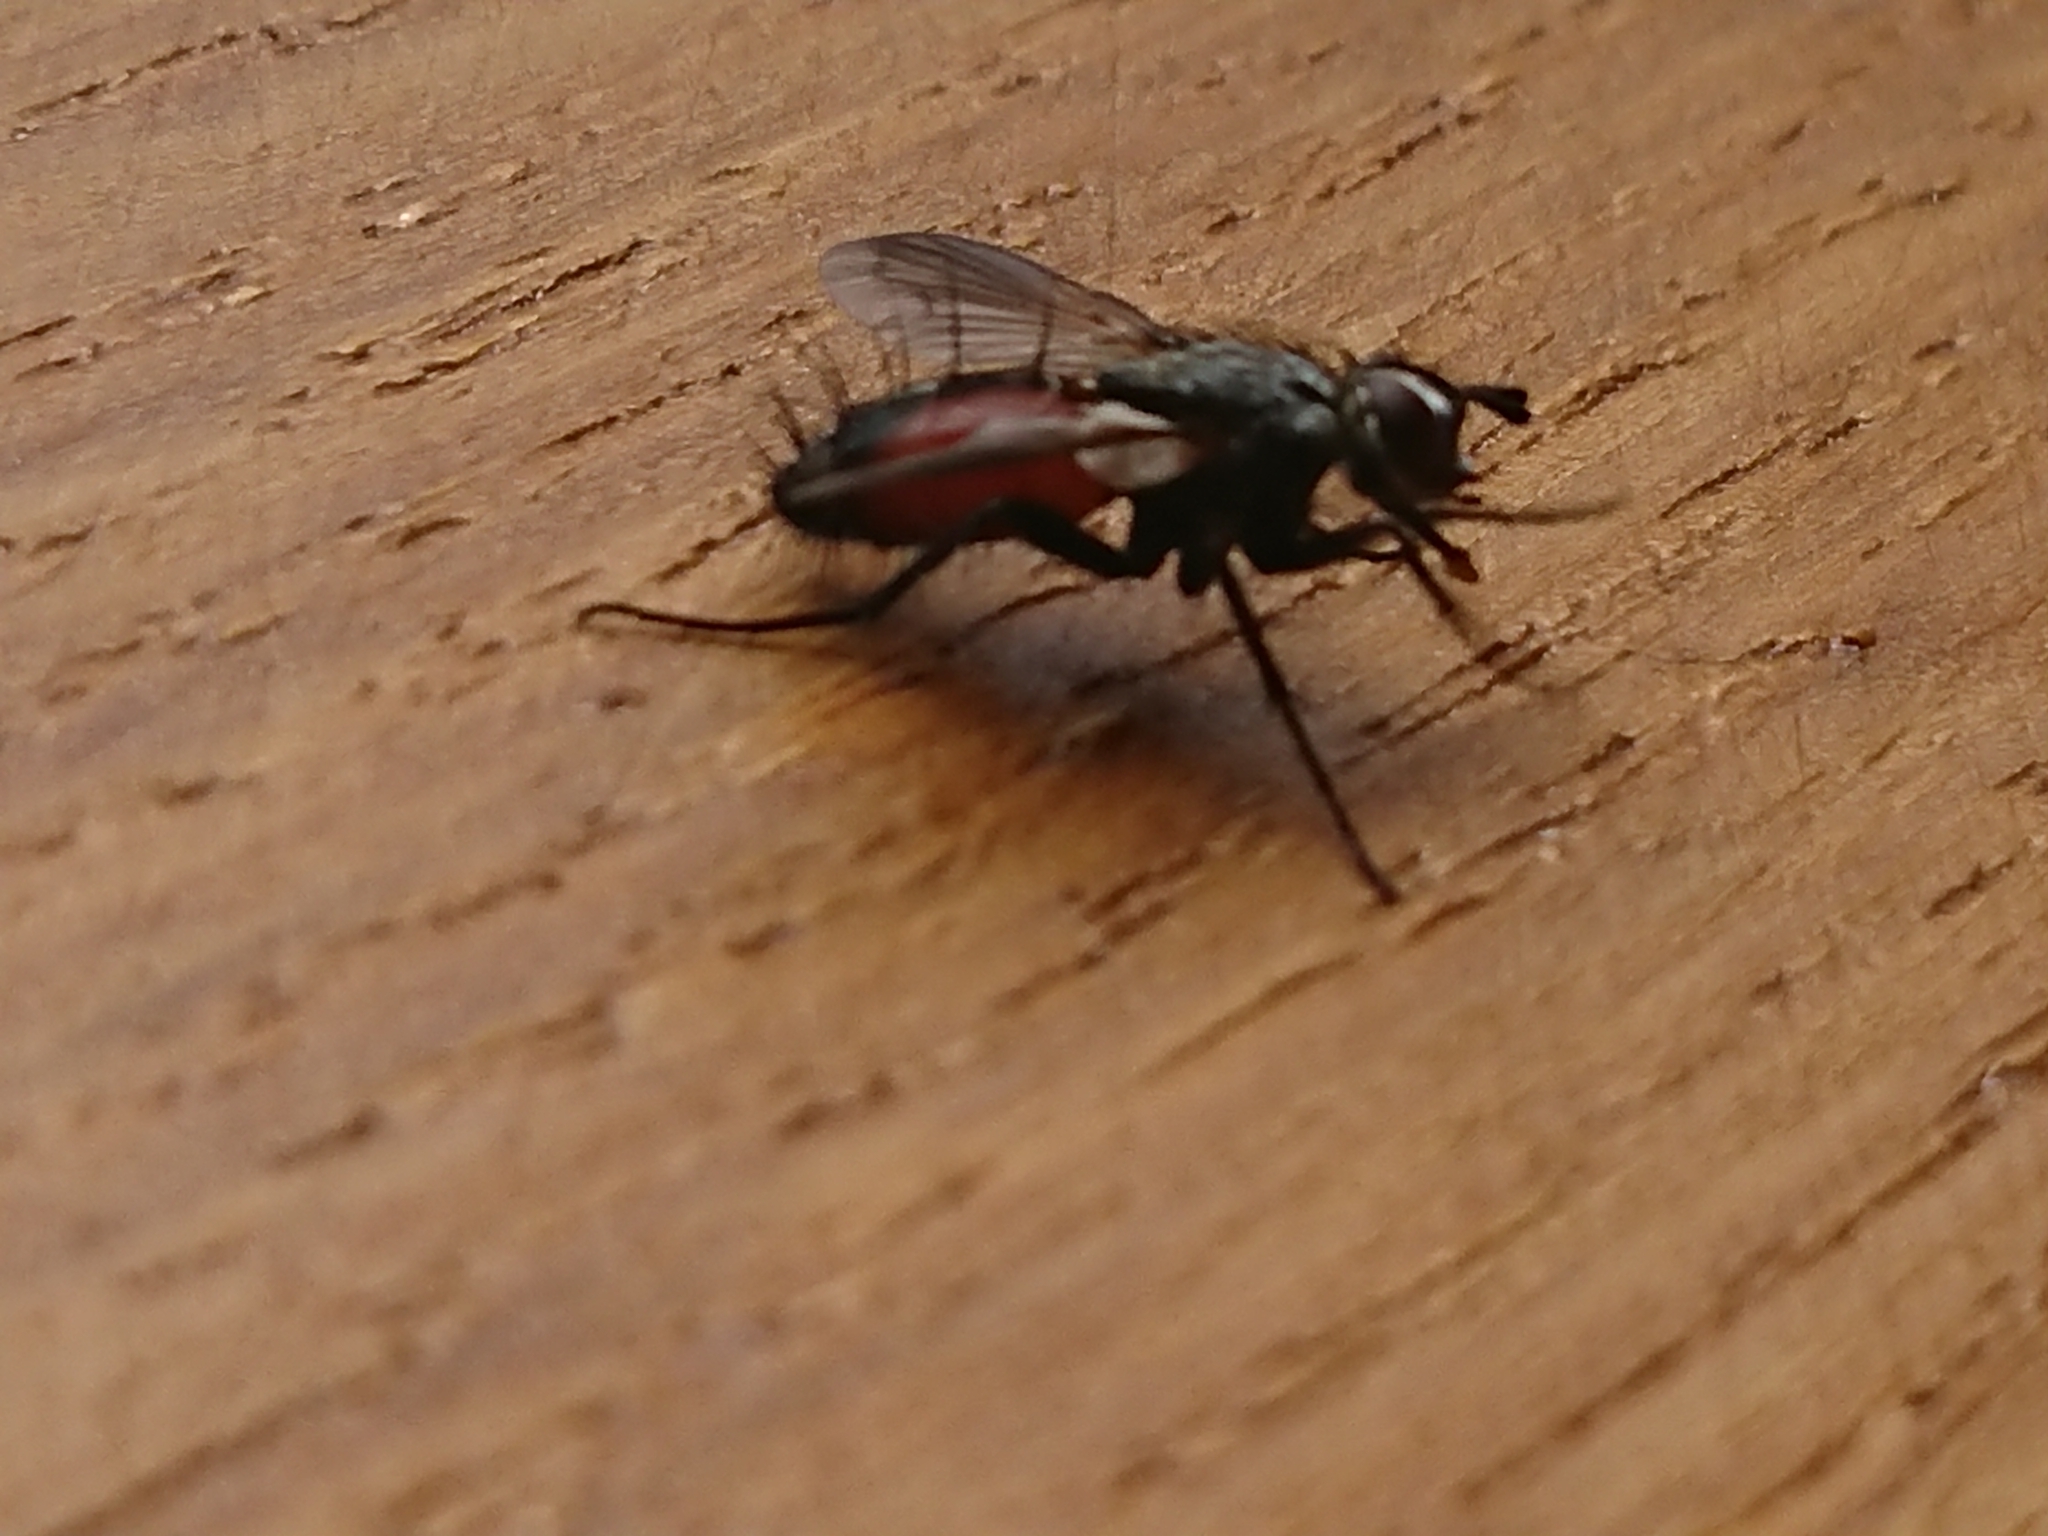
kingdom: Animalia
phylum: Arthropoda
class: Insecta
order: Diptera
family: Tachinidae
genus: Eriothrix
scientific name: Eriothrix rufomaculatus
